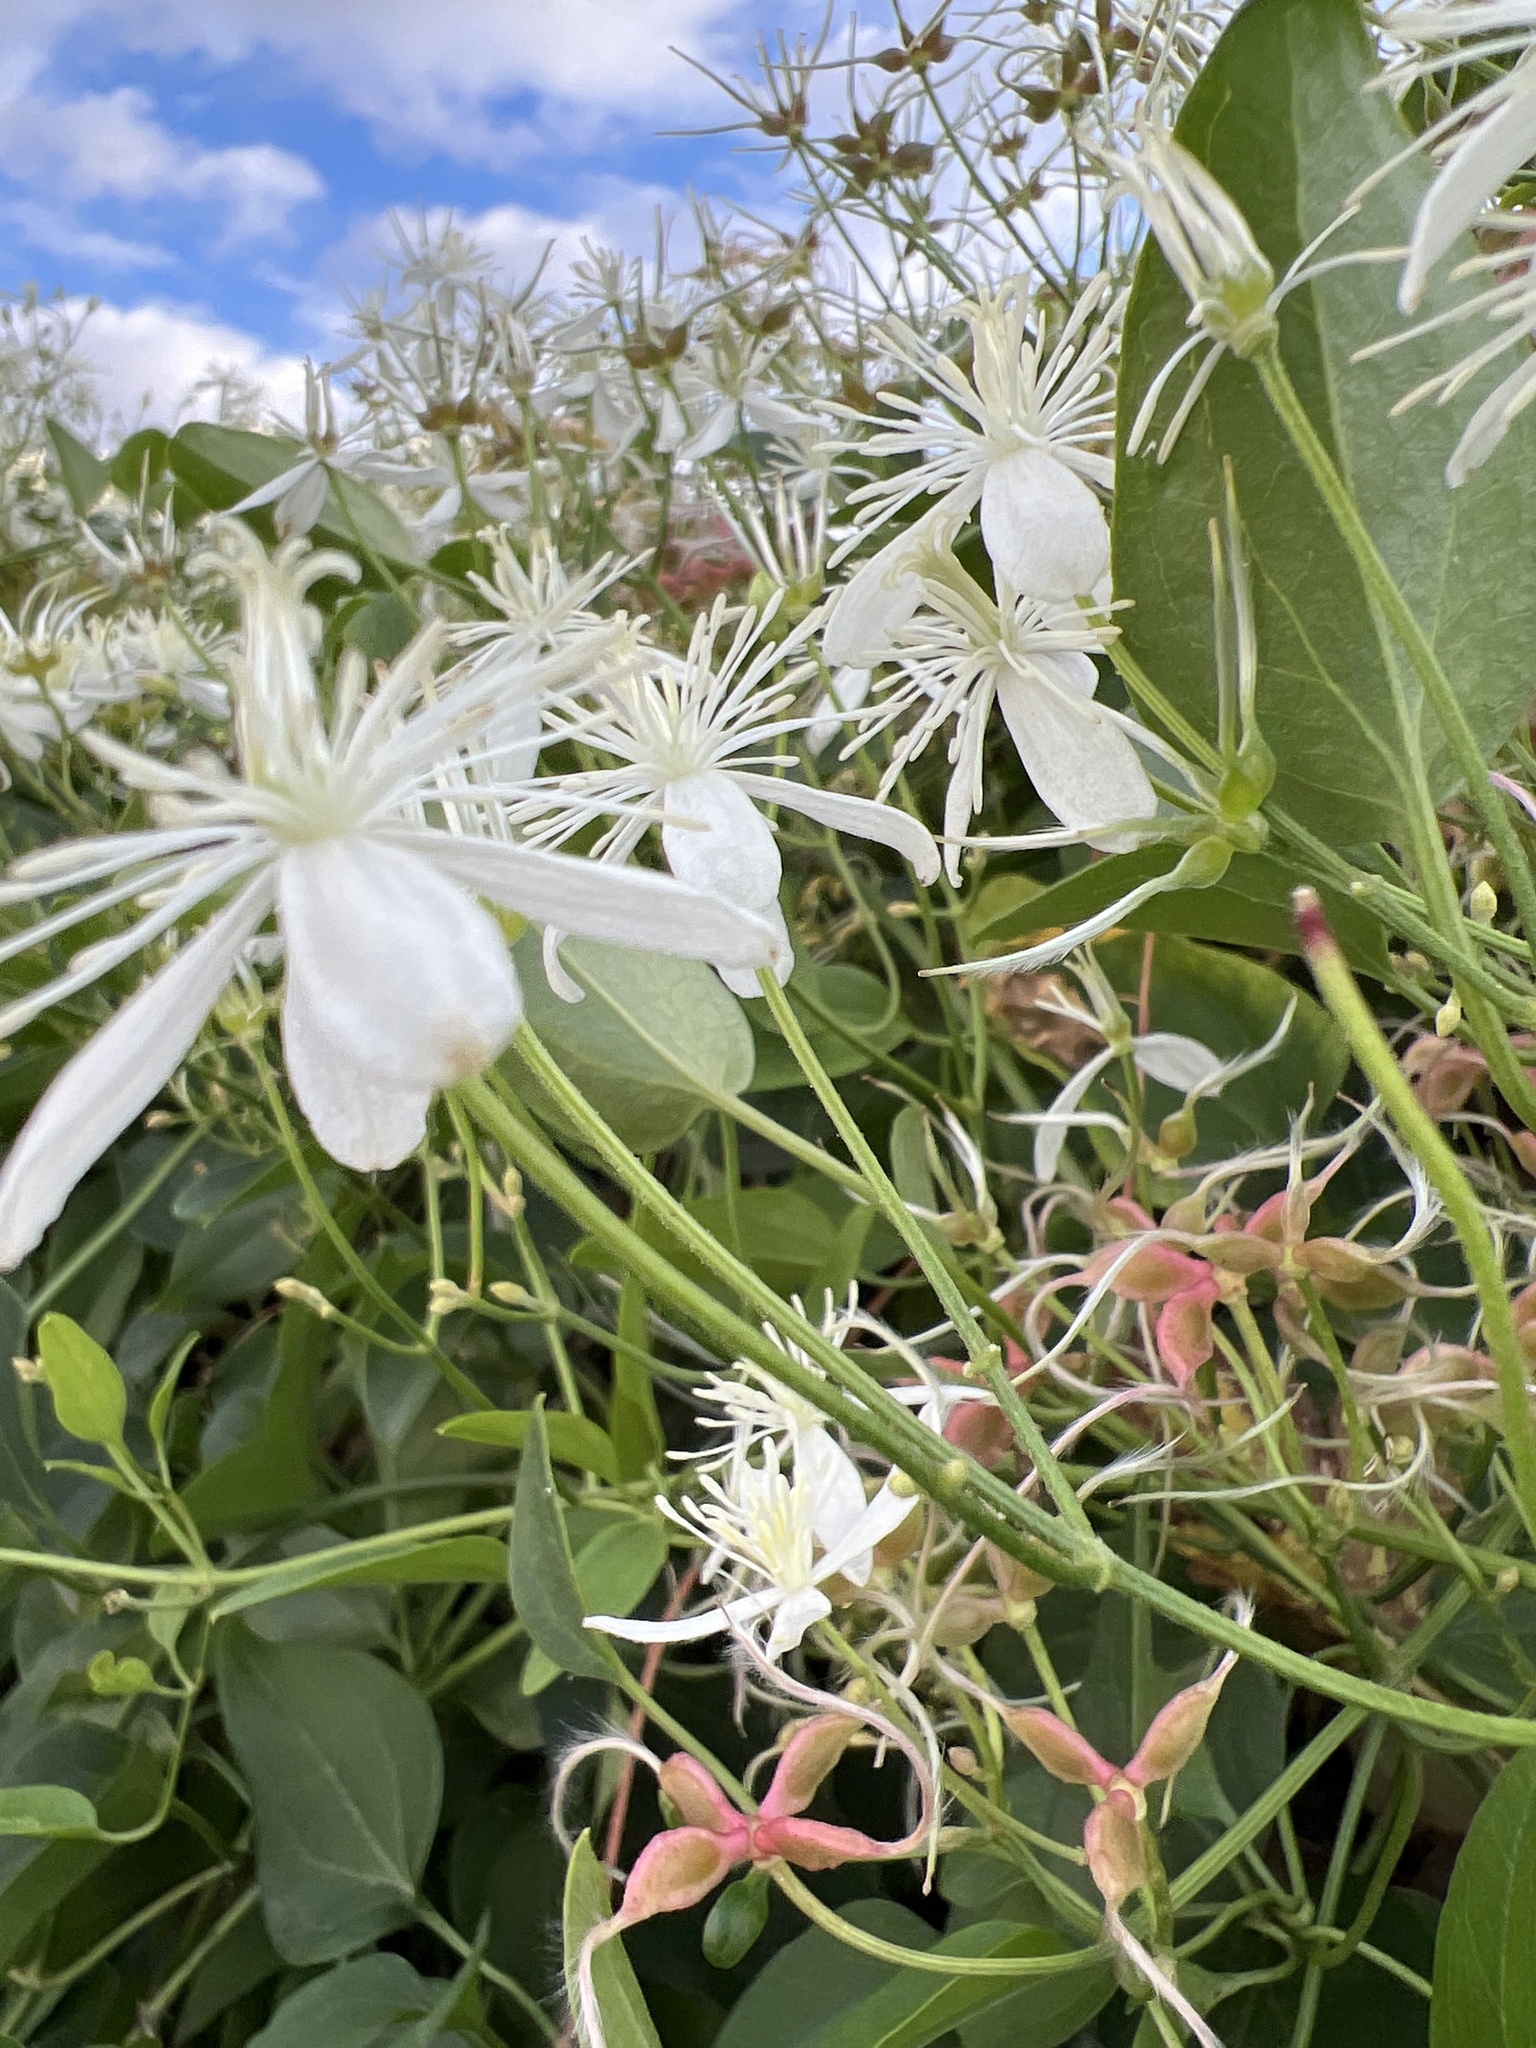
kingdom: Plantae
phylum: Tracheophyta
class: Magnoliopsida
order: Ranunculales
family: Ranunculaceae
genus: Clematis
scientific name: Clematis terniflora
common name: Sweet autumn clematis
